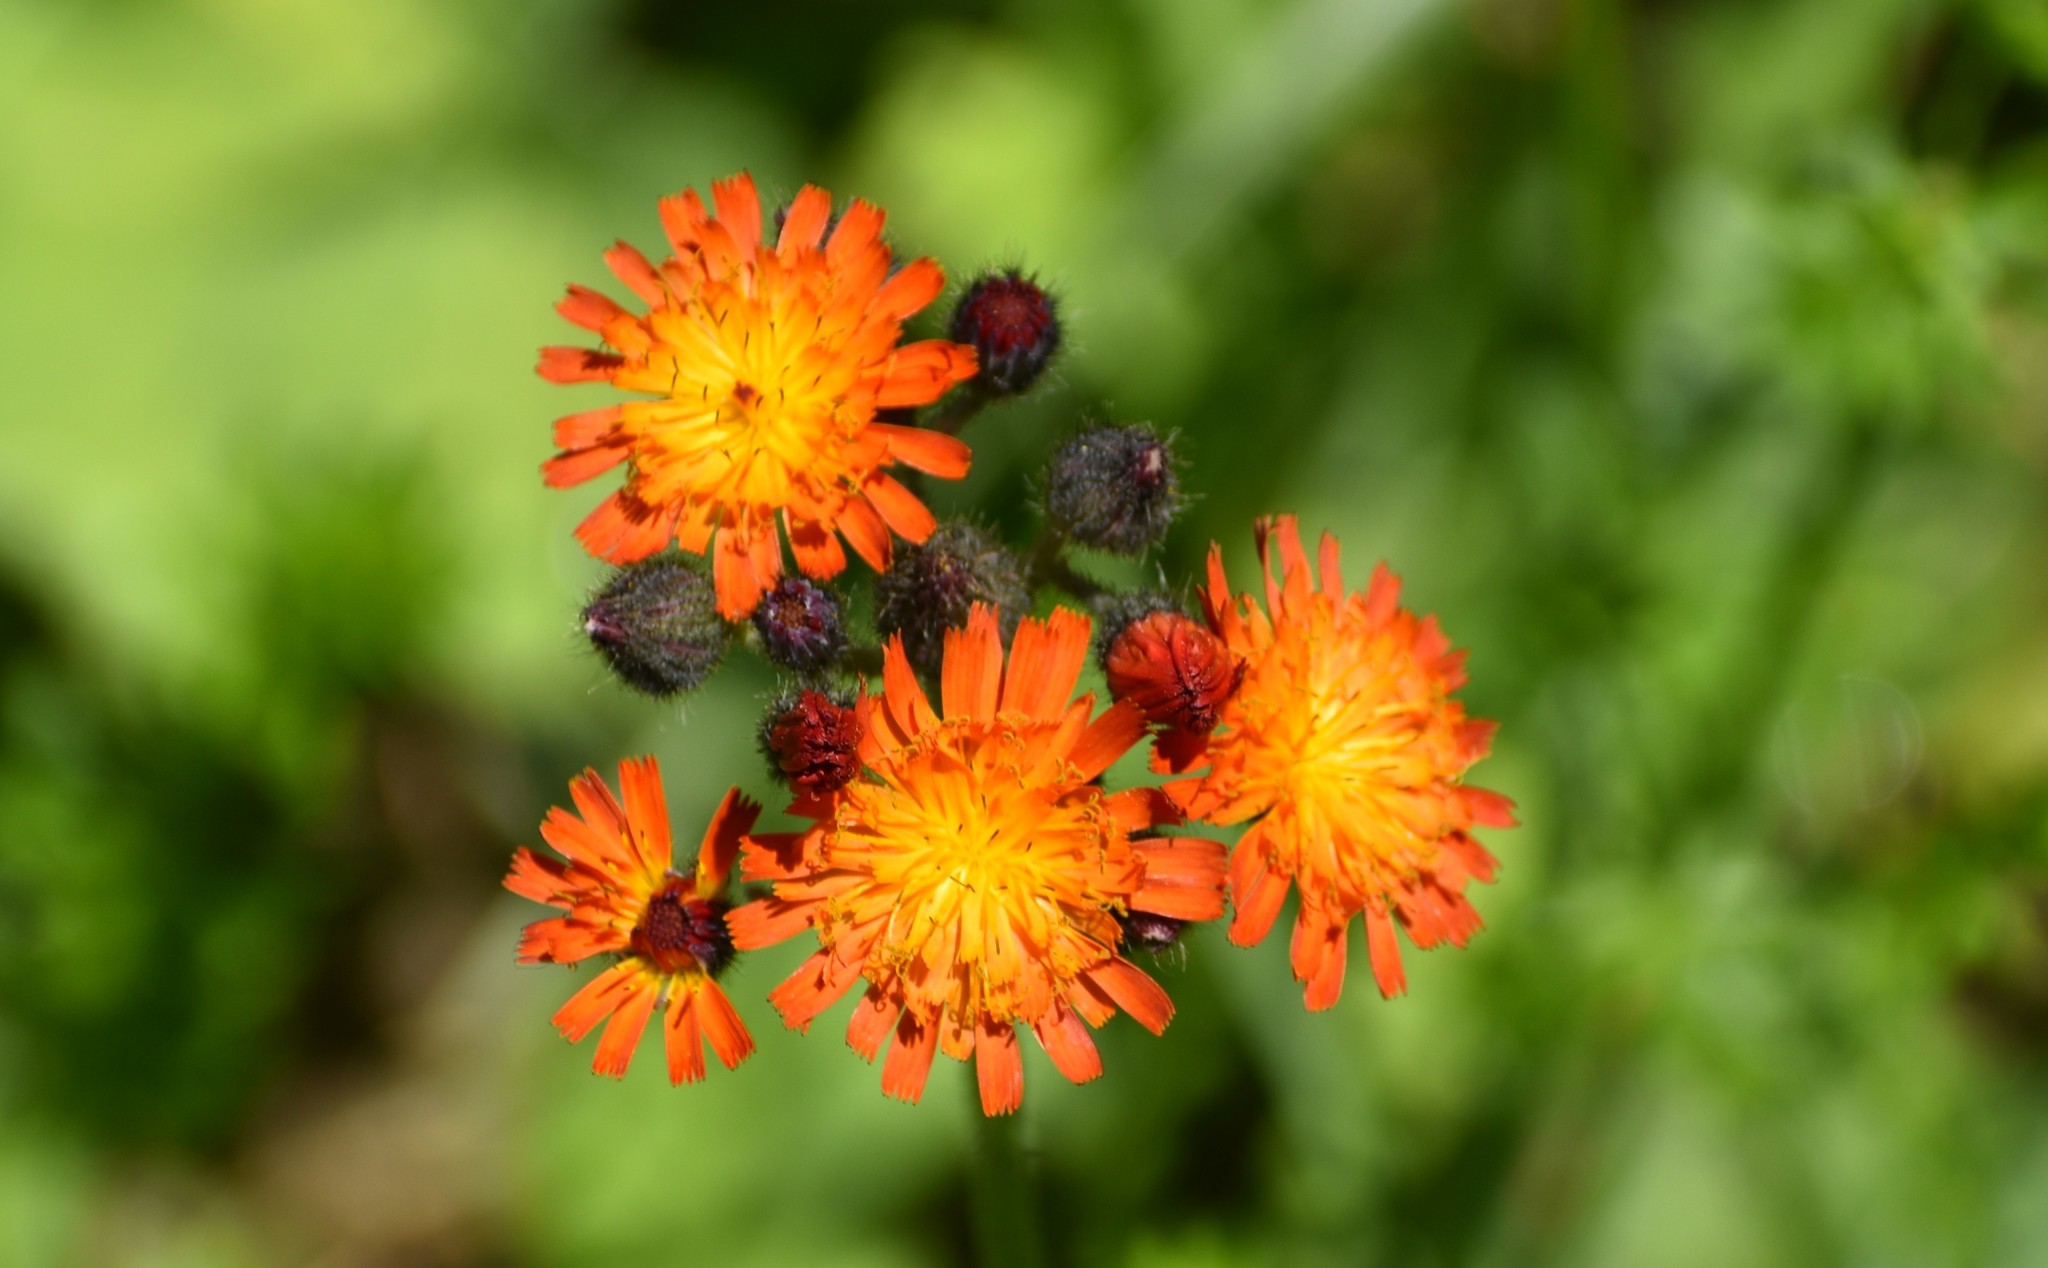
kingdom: Plantae
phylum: Tracheophyta
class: Magnoliopsida
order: Asterales
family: Asteraceae
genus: Pilosella
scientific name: Pilosella aurantiaca
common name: Fox-and-cubs
